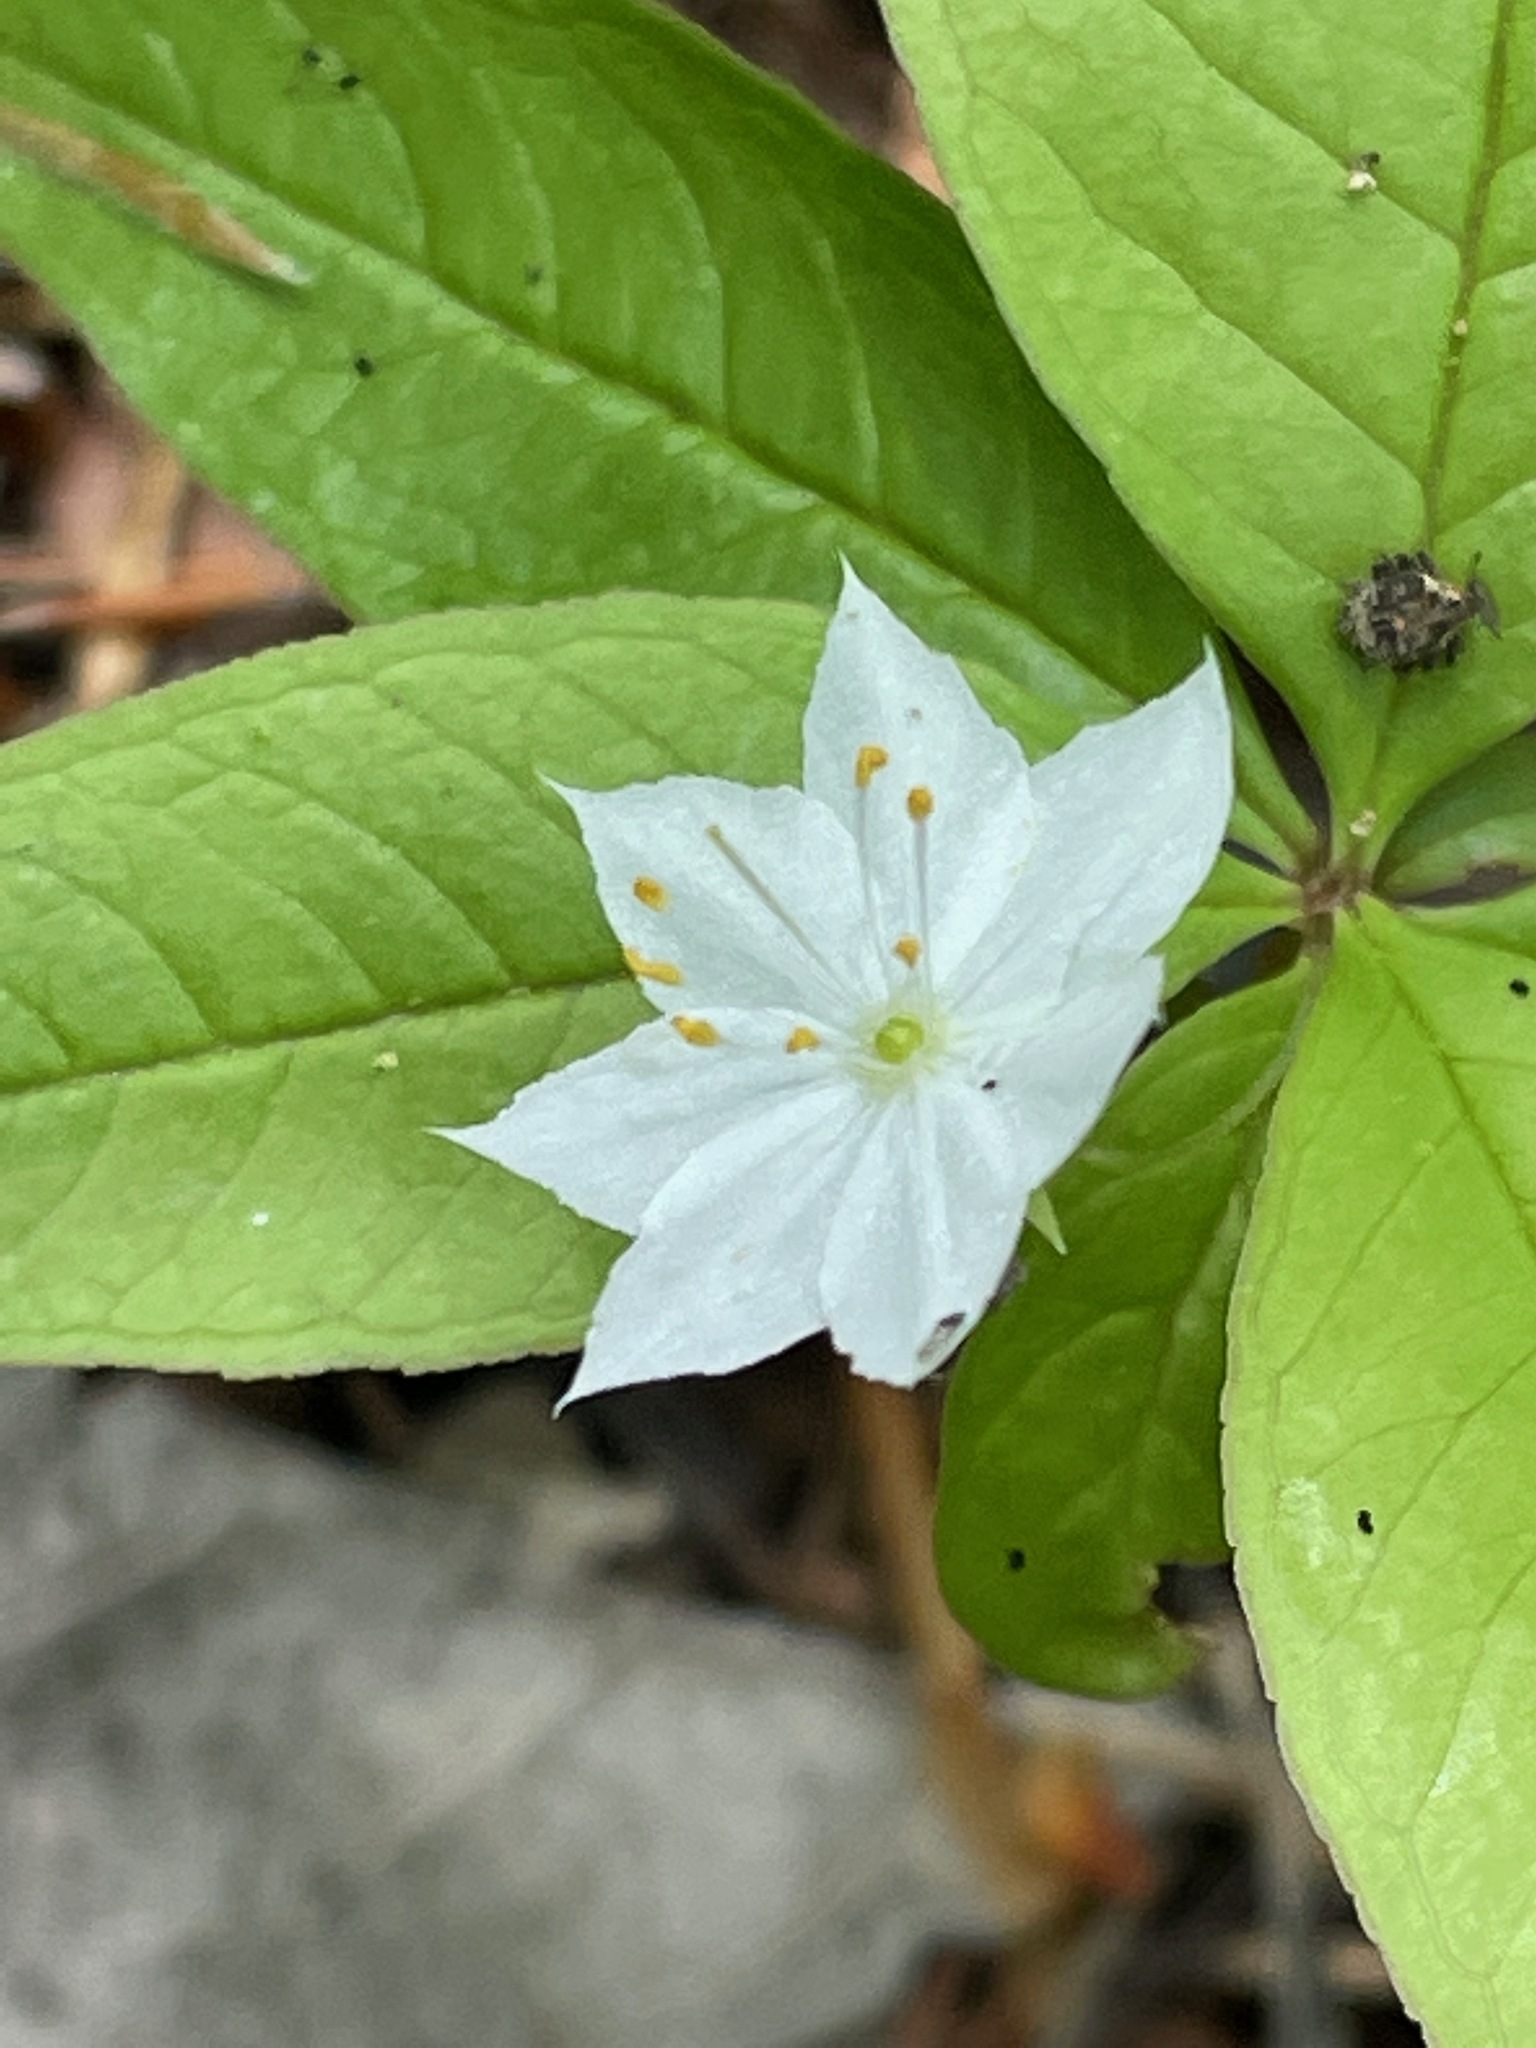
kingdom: Plantae
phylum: Tracheophyta
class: Magnoliopsida
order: Ericales
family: Primulaceae
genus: Lysimachia
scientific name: Lysimachia borealis
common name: American starflower
